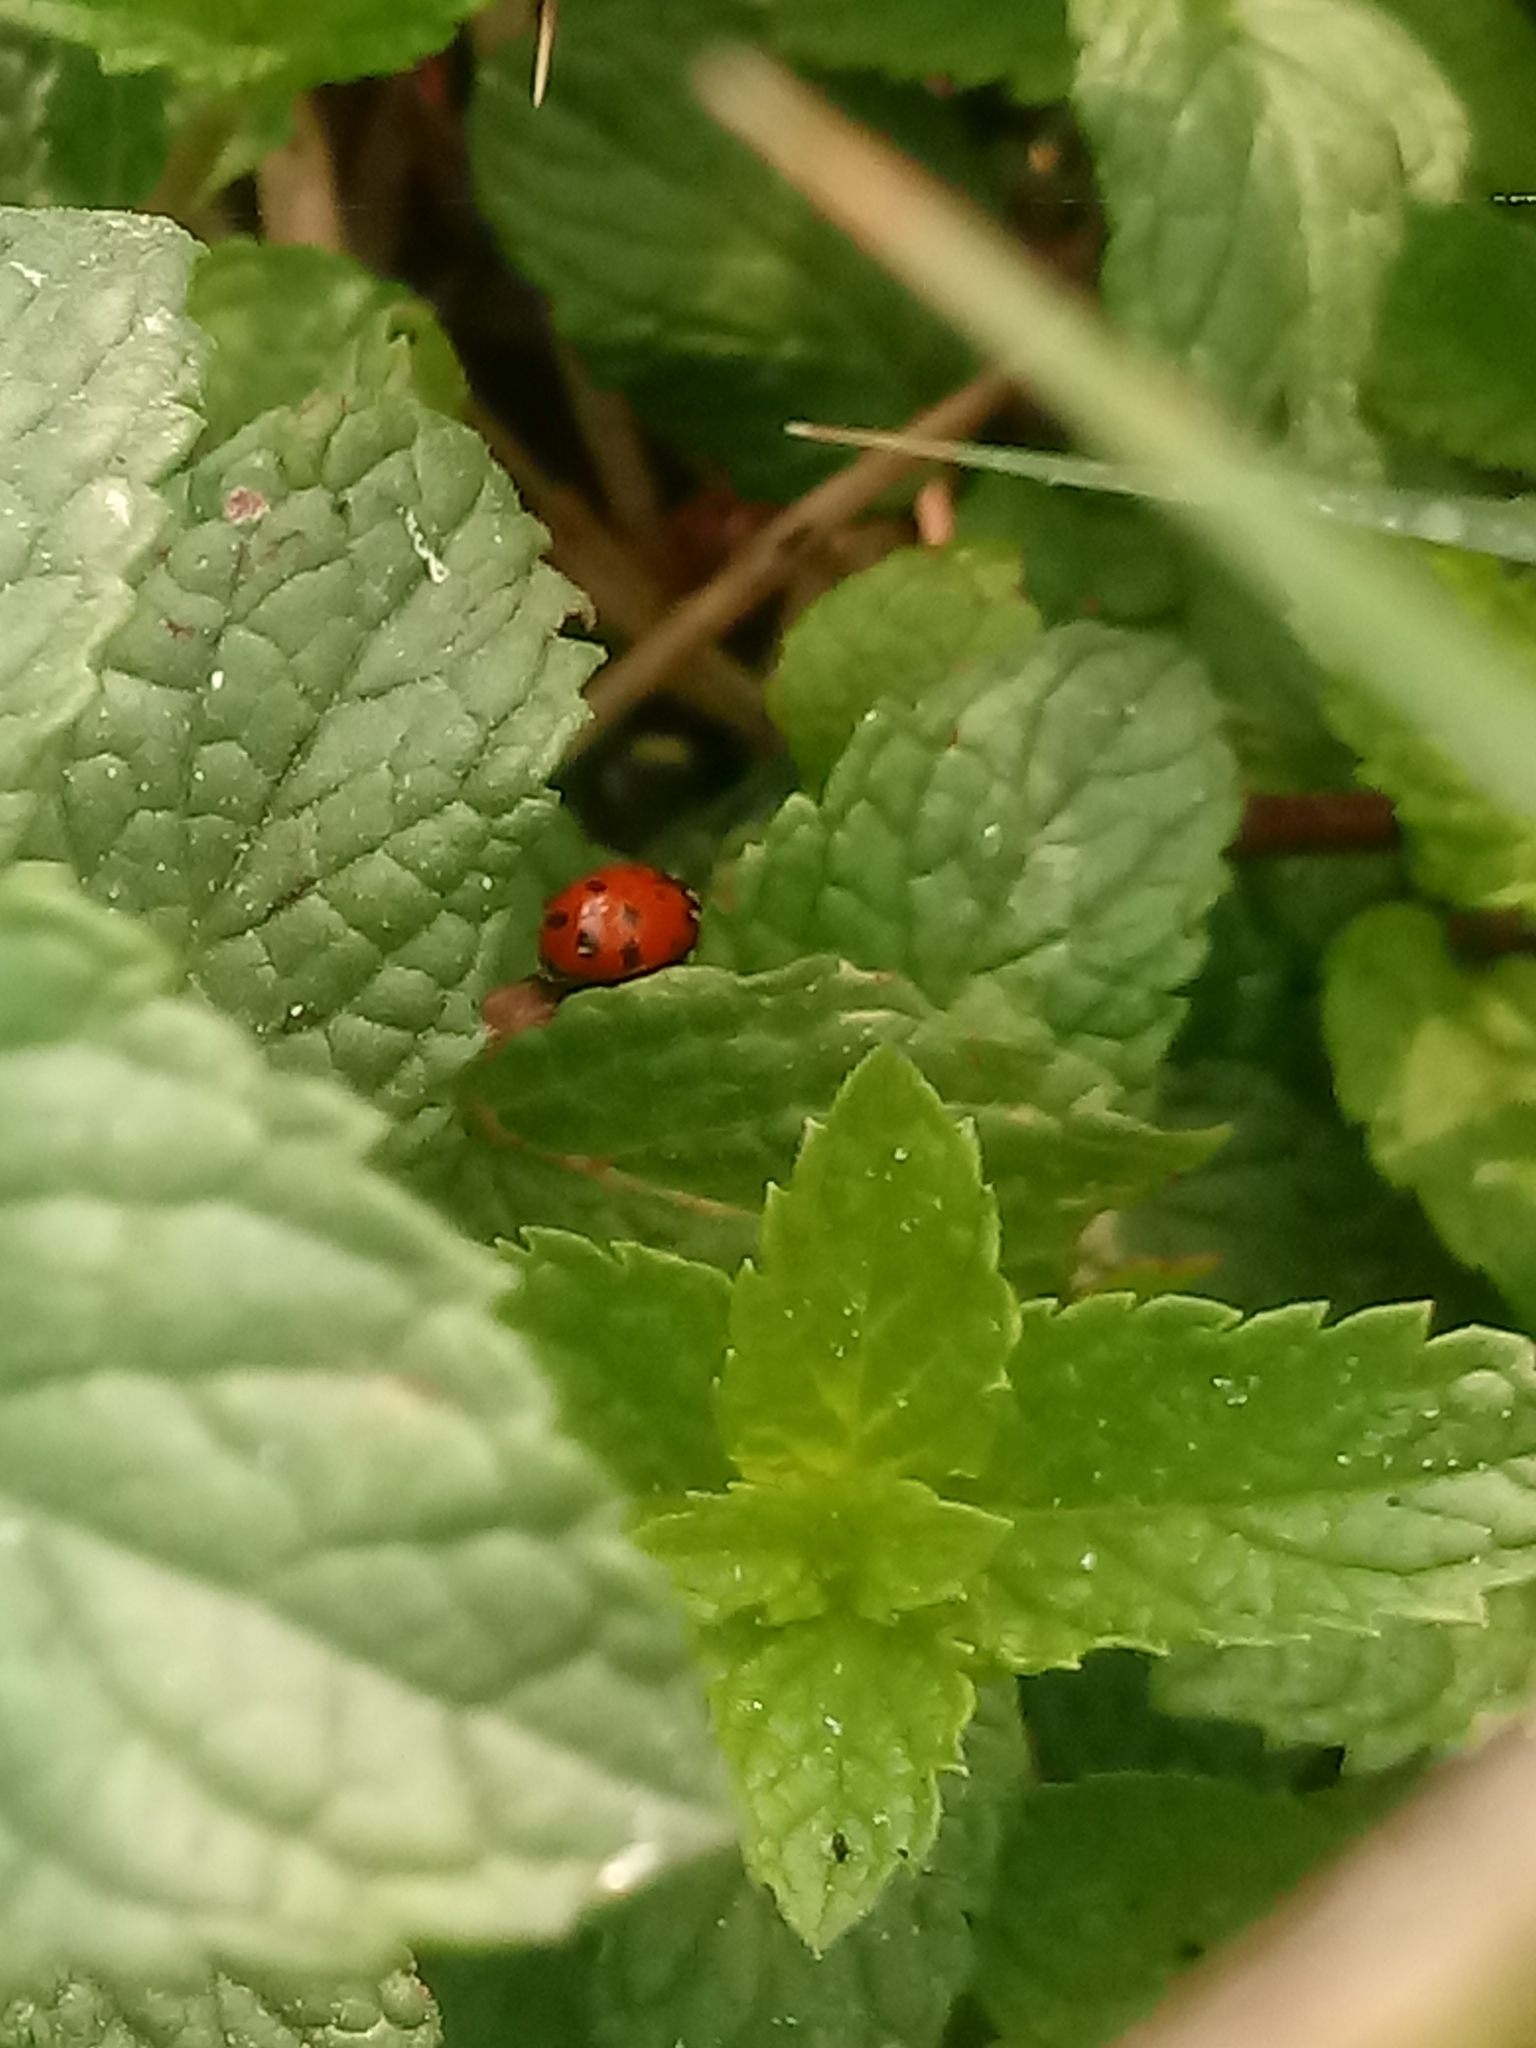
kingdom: Animalia
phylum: Arthropoda
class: Insecta
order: Coleoptera
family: Coccinellidae
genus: Hippodamia
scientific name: Hippodamia convergens
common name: Convergent lady beetle
